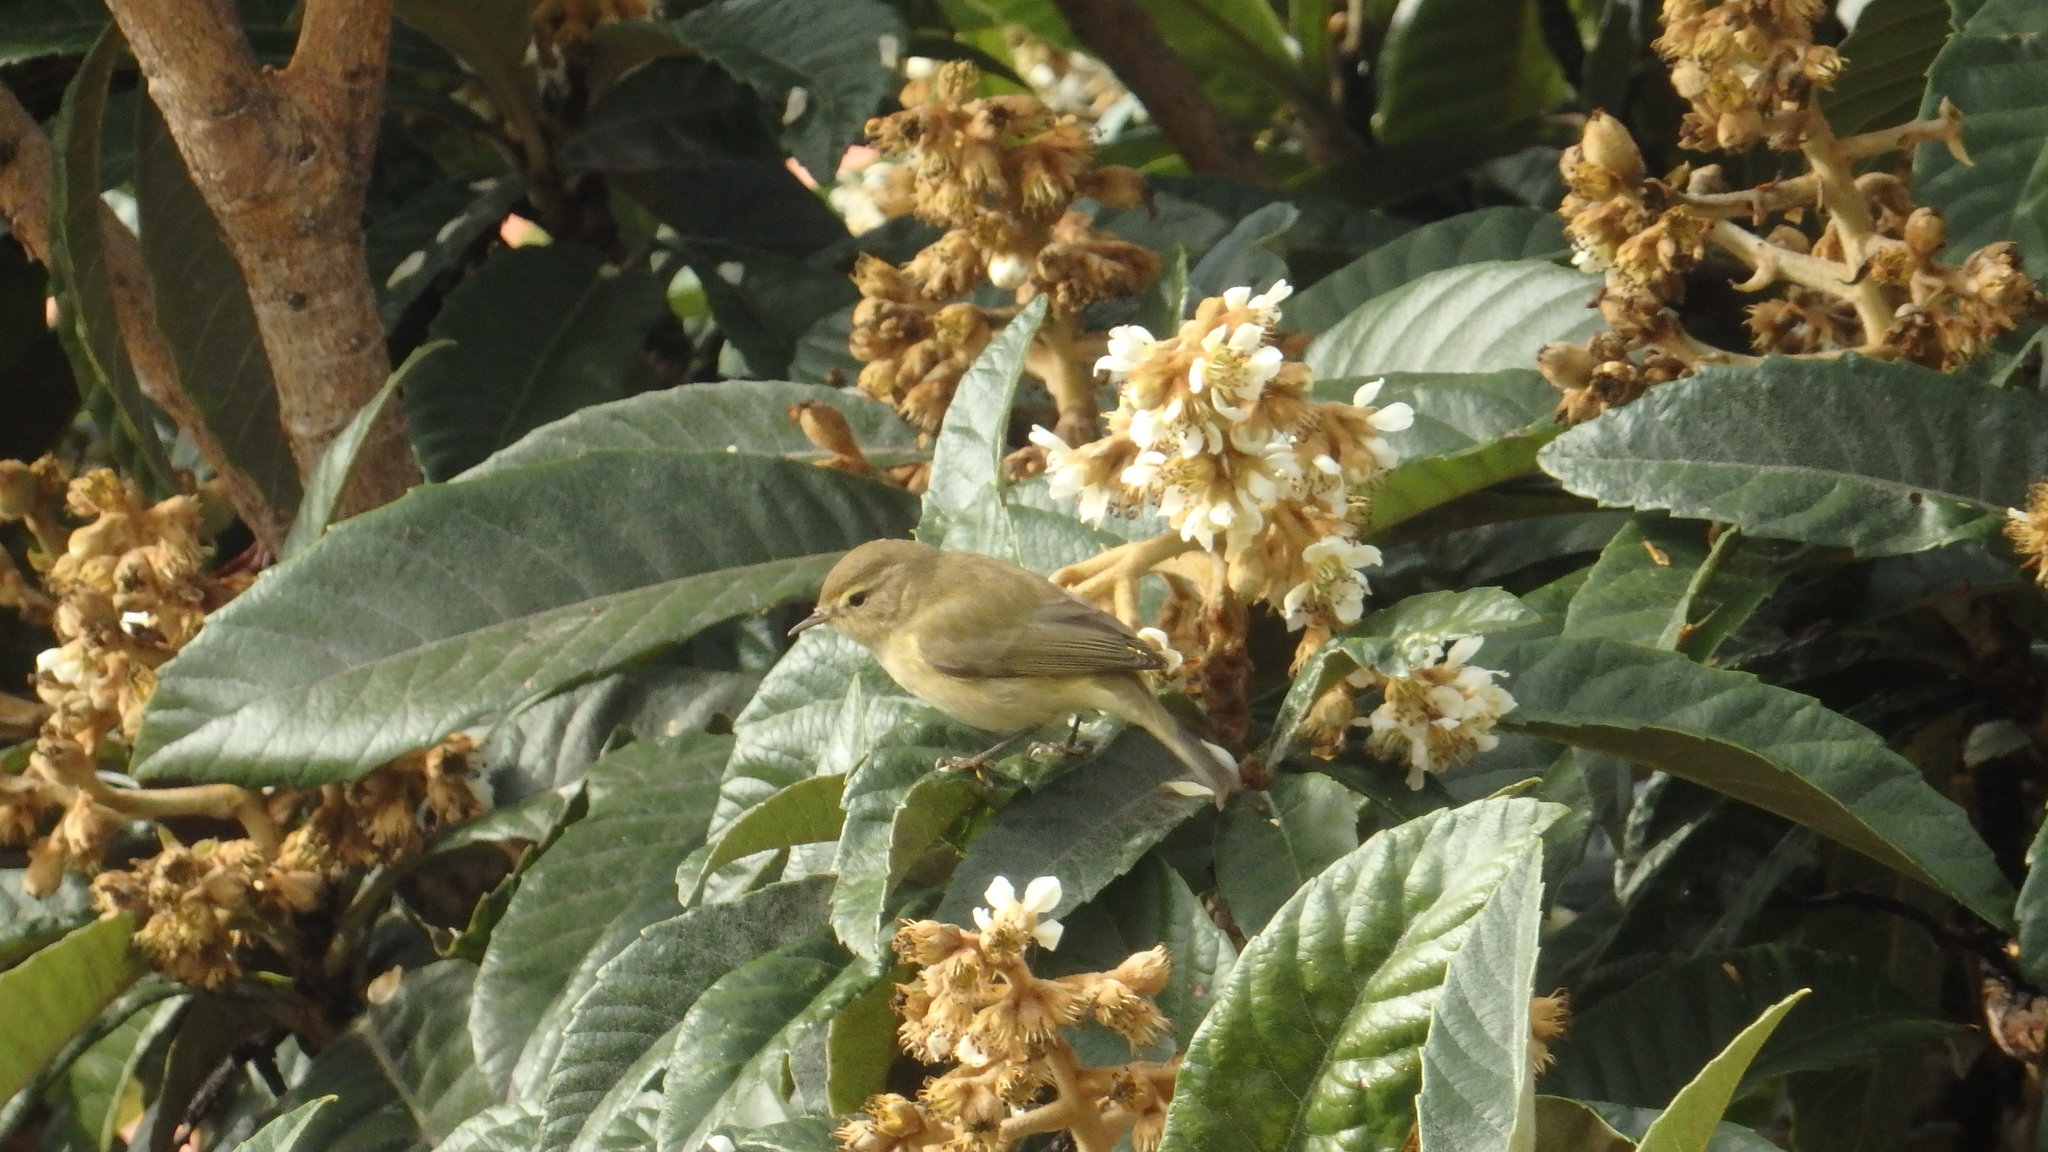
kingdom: Animalia
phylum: Chordata
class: Aves
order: Passeriformes
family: Phylloscopidae
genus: Phylloscopus
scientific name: Phylloscopus collybita
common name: Common chiffchaff
